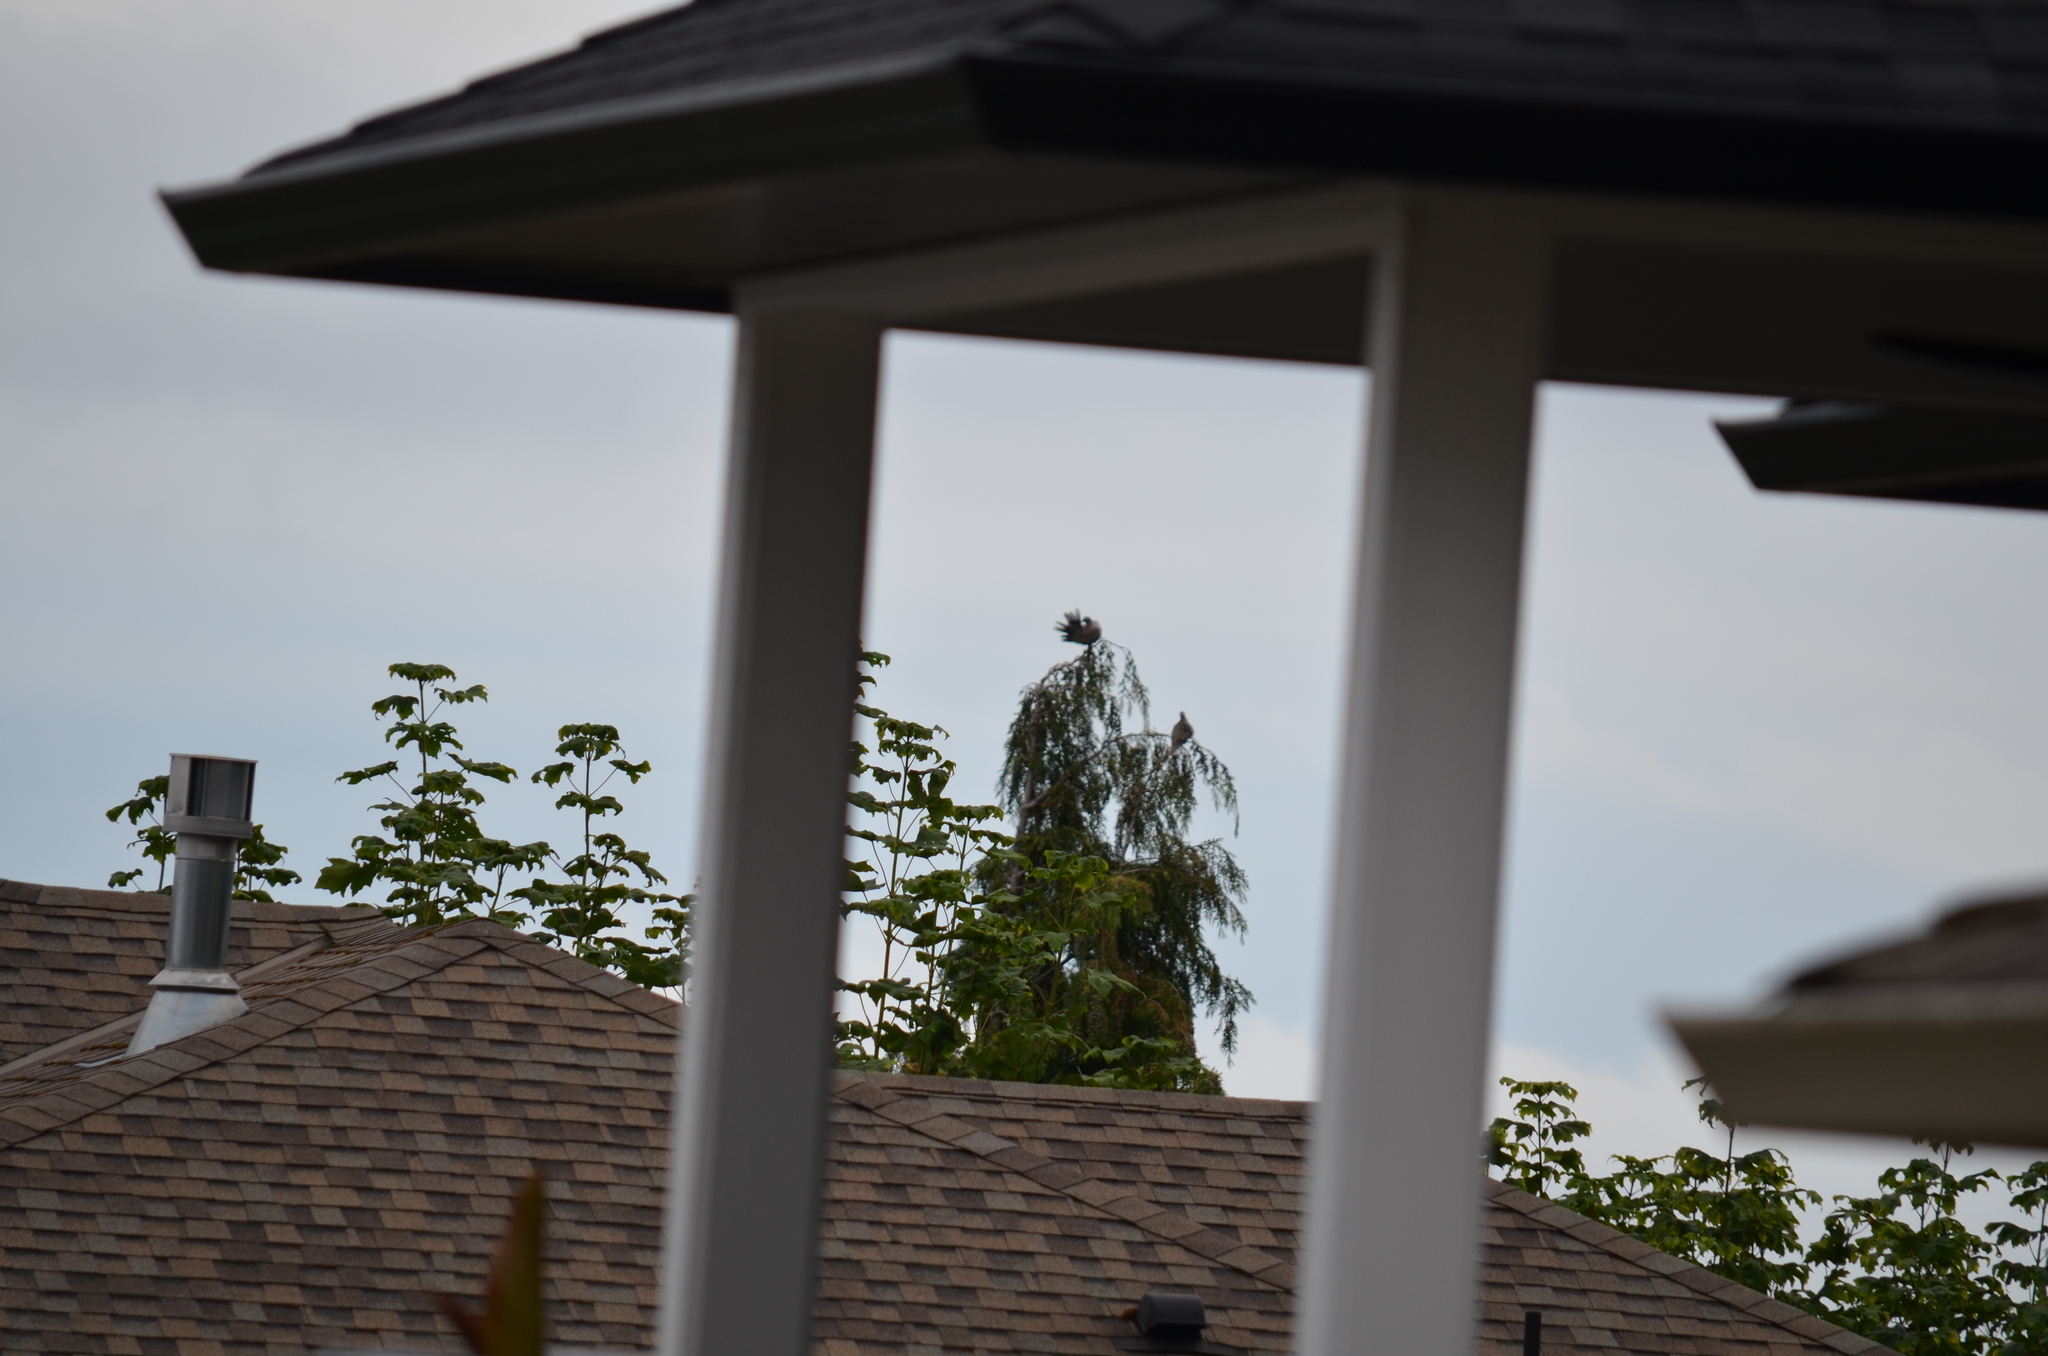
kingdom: Animalia
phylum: Chordata
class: Aves
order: Columbiformes
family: Columbidae
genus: Streptopelia
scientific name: Streptopelia decaocto
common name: Eurasian collared dove
